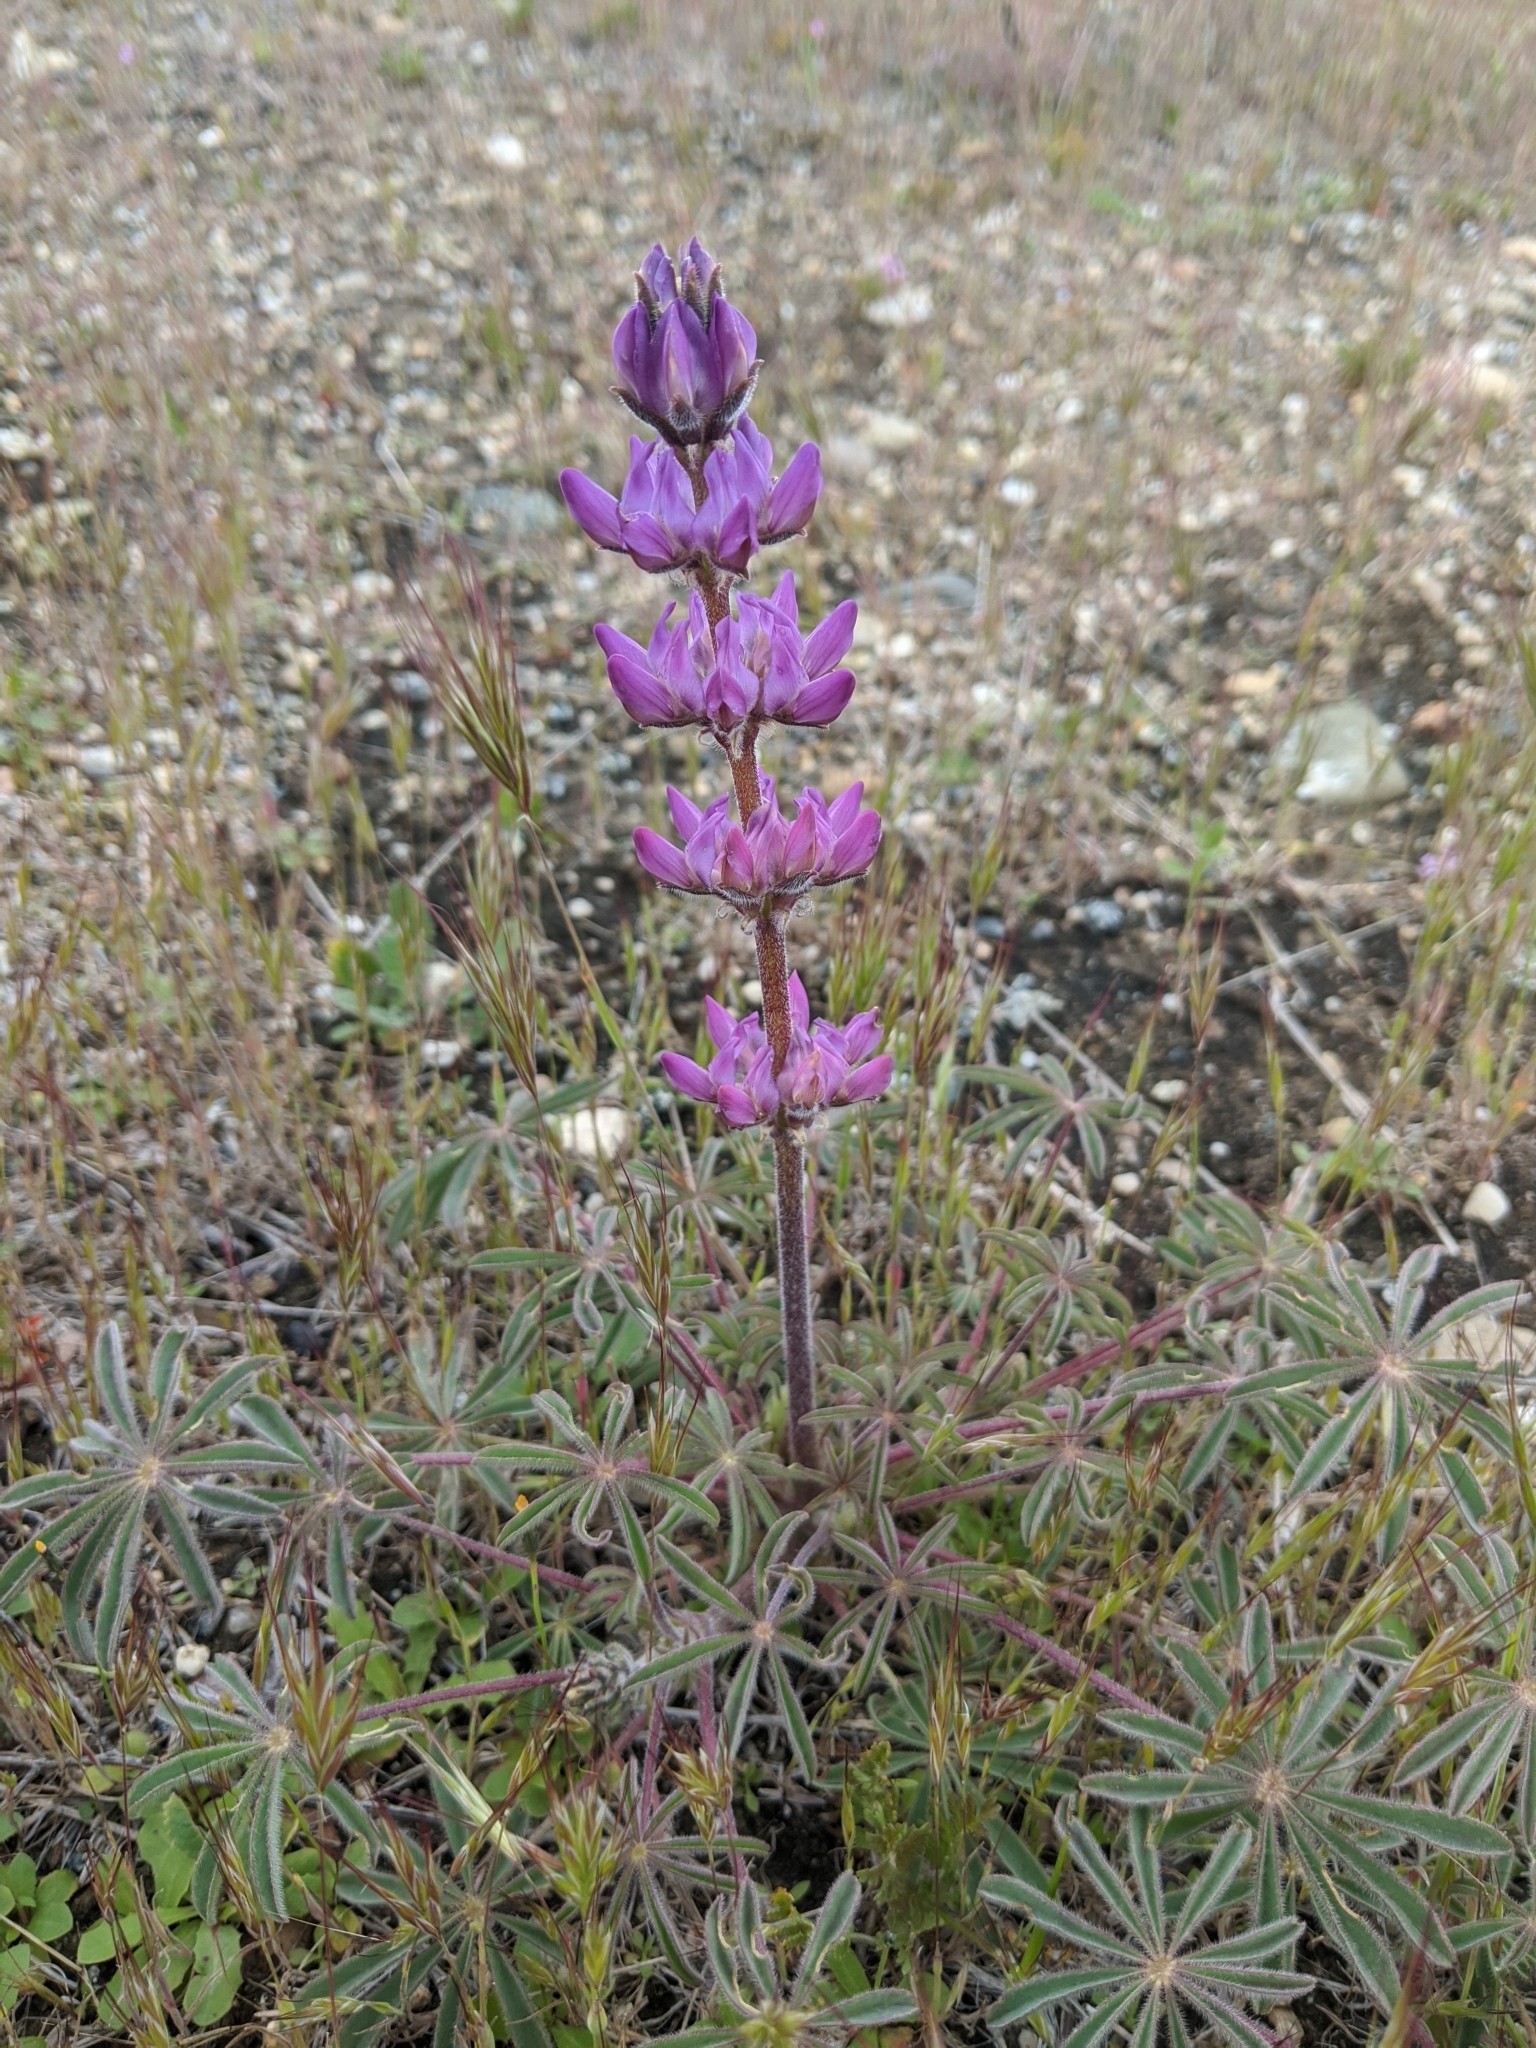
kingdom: Plantae
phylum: Tracheophyta
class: Magnoliopsida
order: Fabales
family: Fabaceae
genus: Lupinus
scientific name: Lupinus microcarpus
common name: Chick lupine
